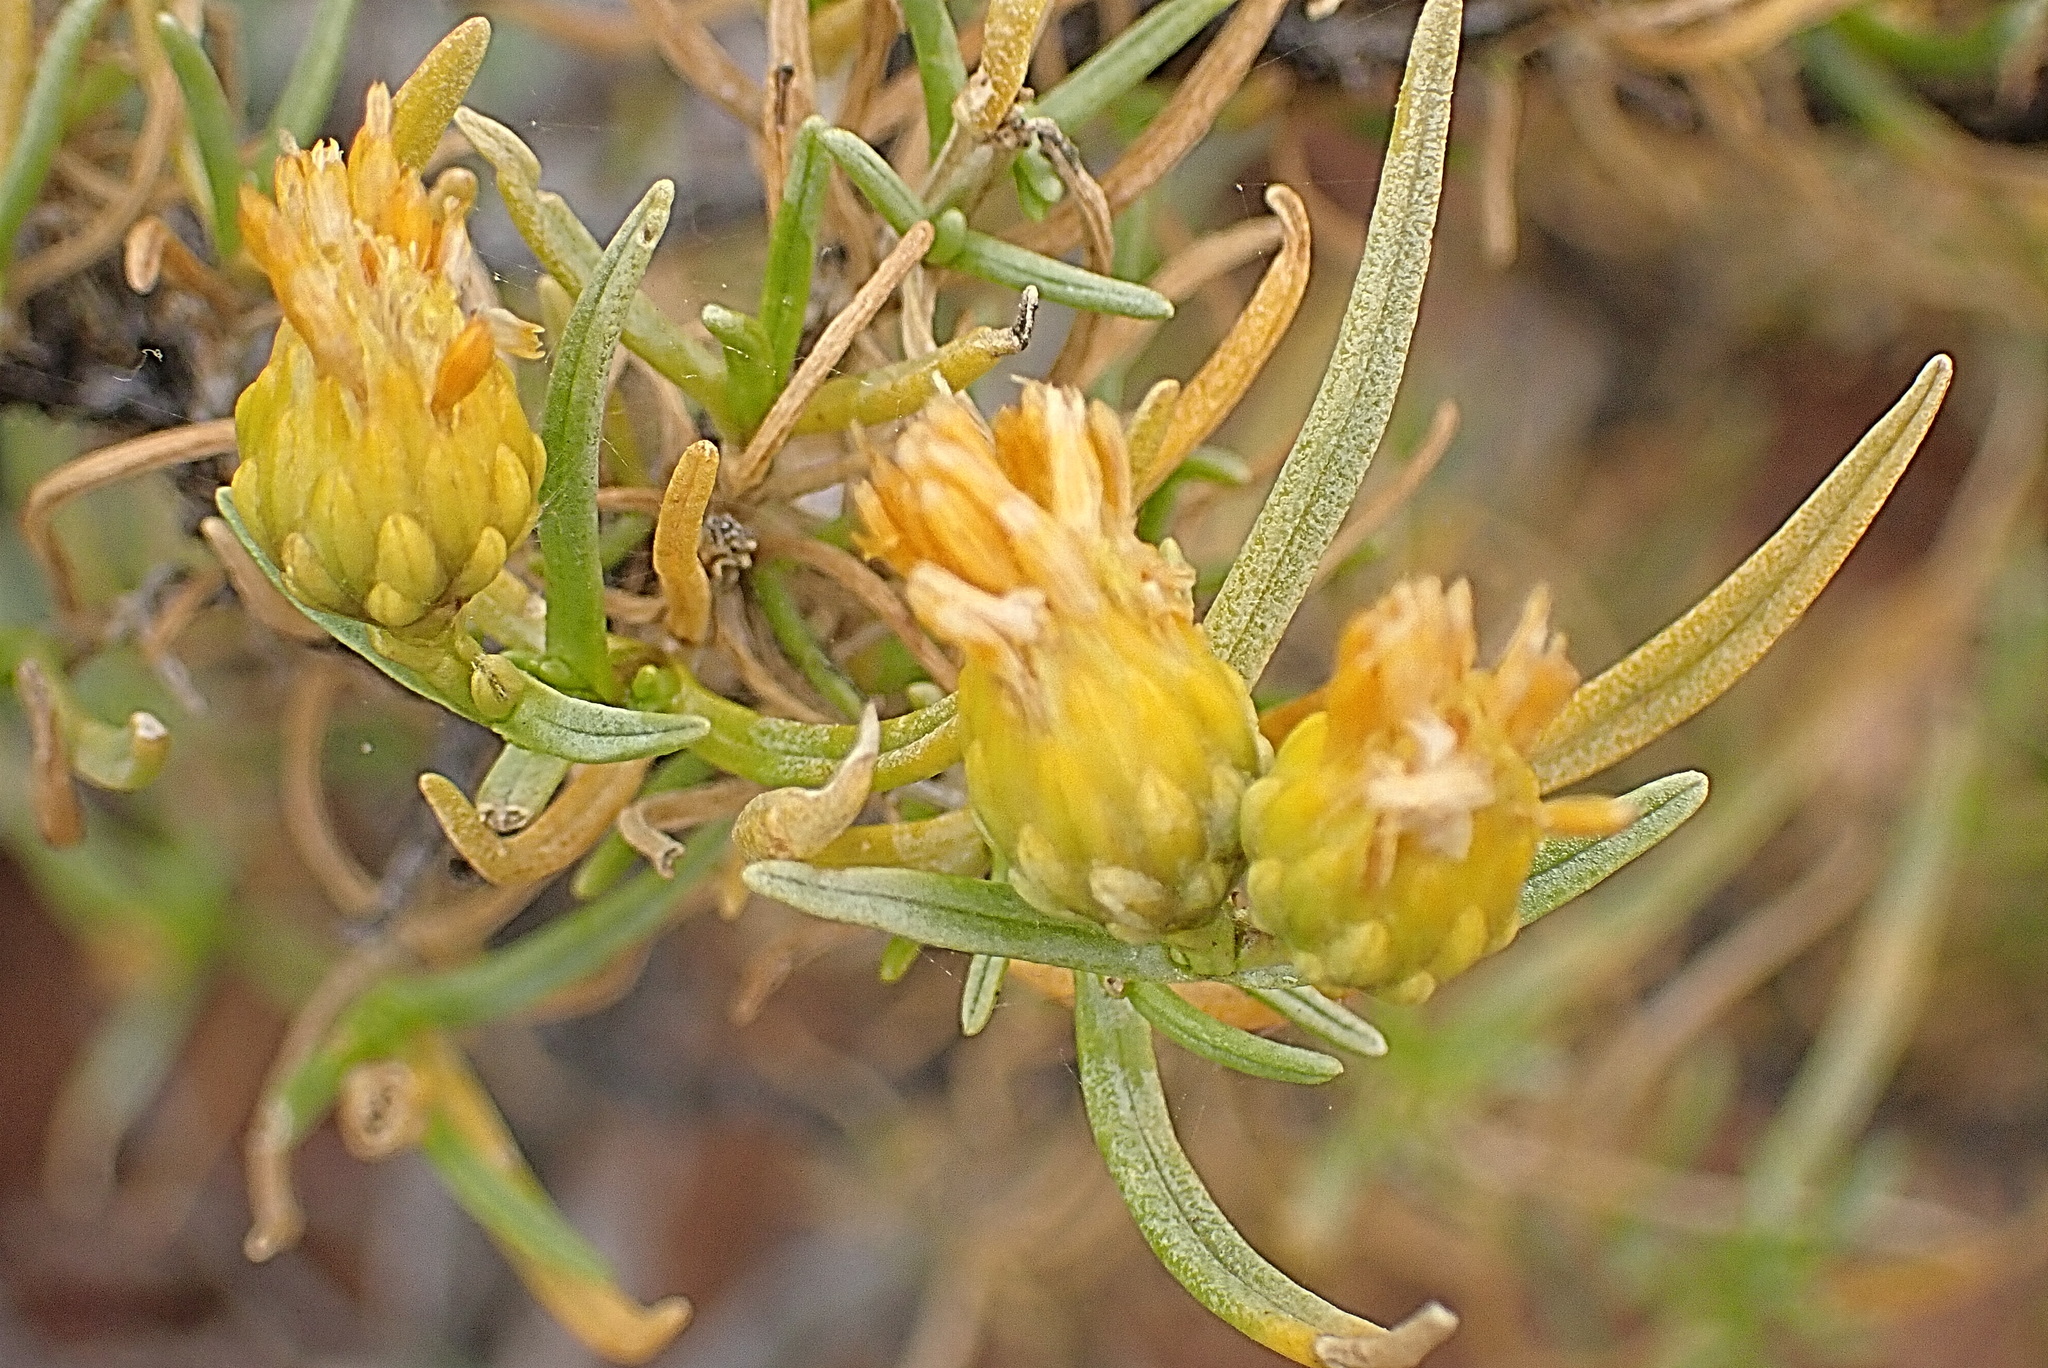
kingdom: Plantae
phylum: Tracheophyta
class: Magnoliopsida
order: Asterales
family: Asteraceae
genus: Pteronia
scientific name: Pteronia pallens
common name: Scholtzbush
